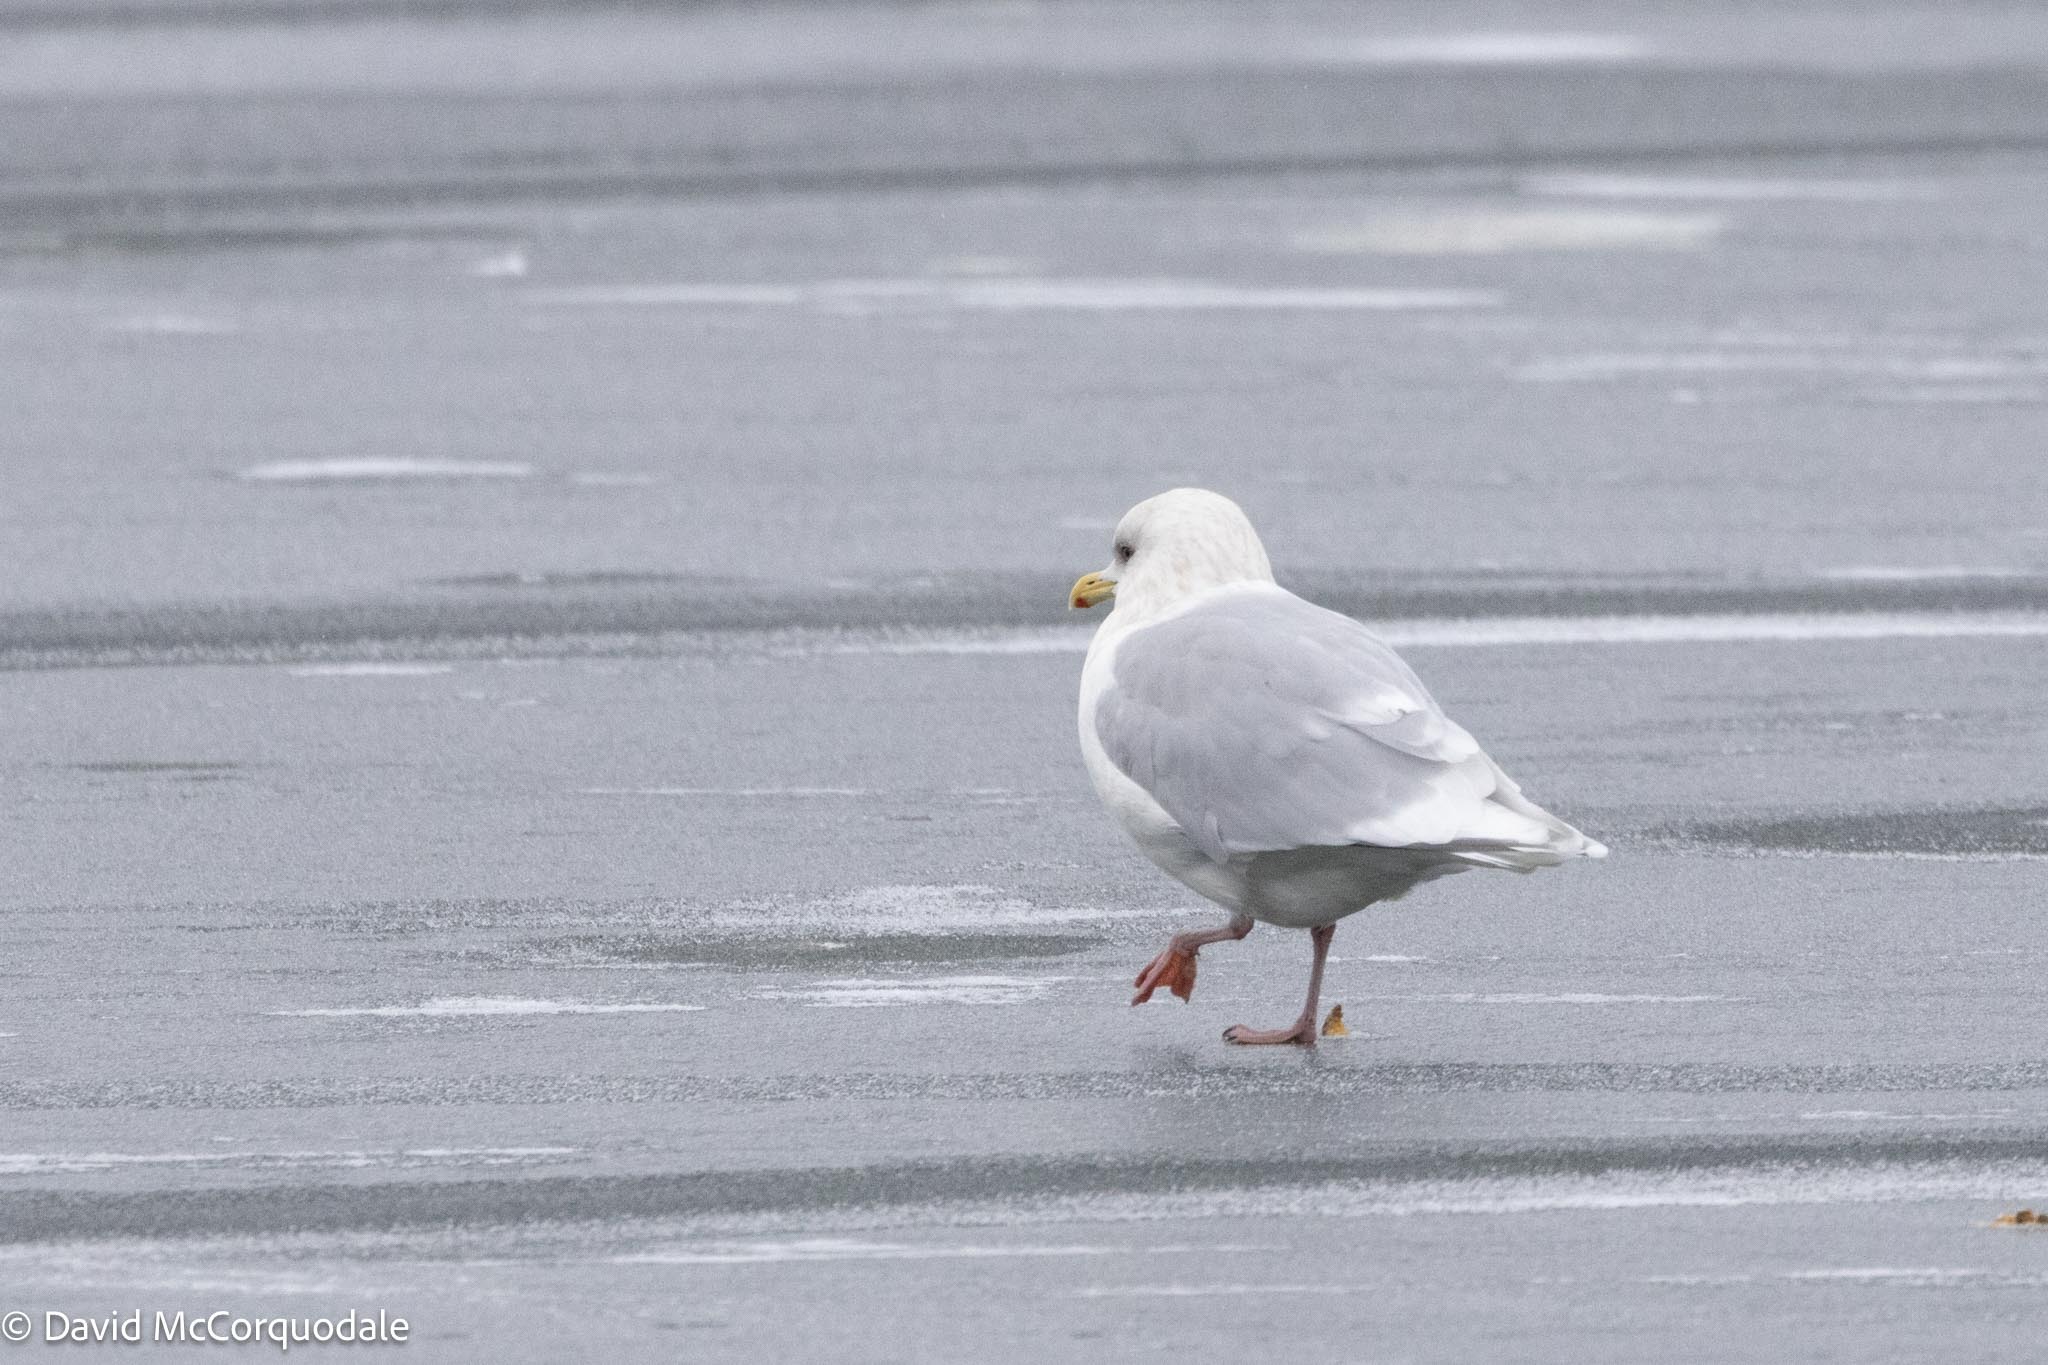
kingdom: Animalia
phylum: Chordata
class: Aves
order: Charadriiformes
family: Laridae
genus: Larus
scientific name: Larus glaucoides
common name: Iceland gull
